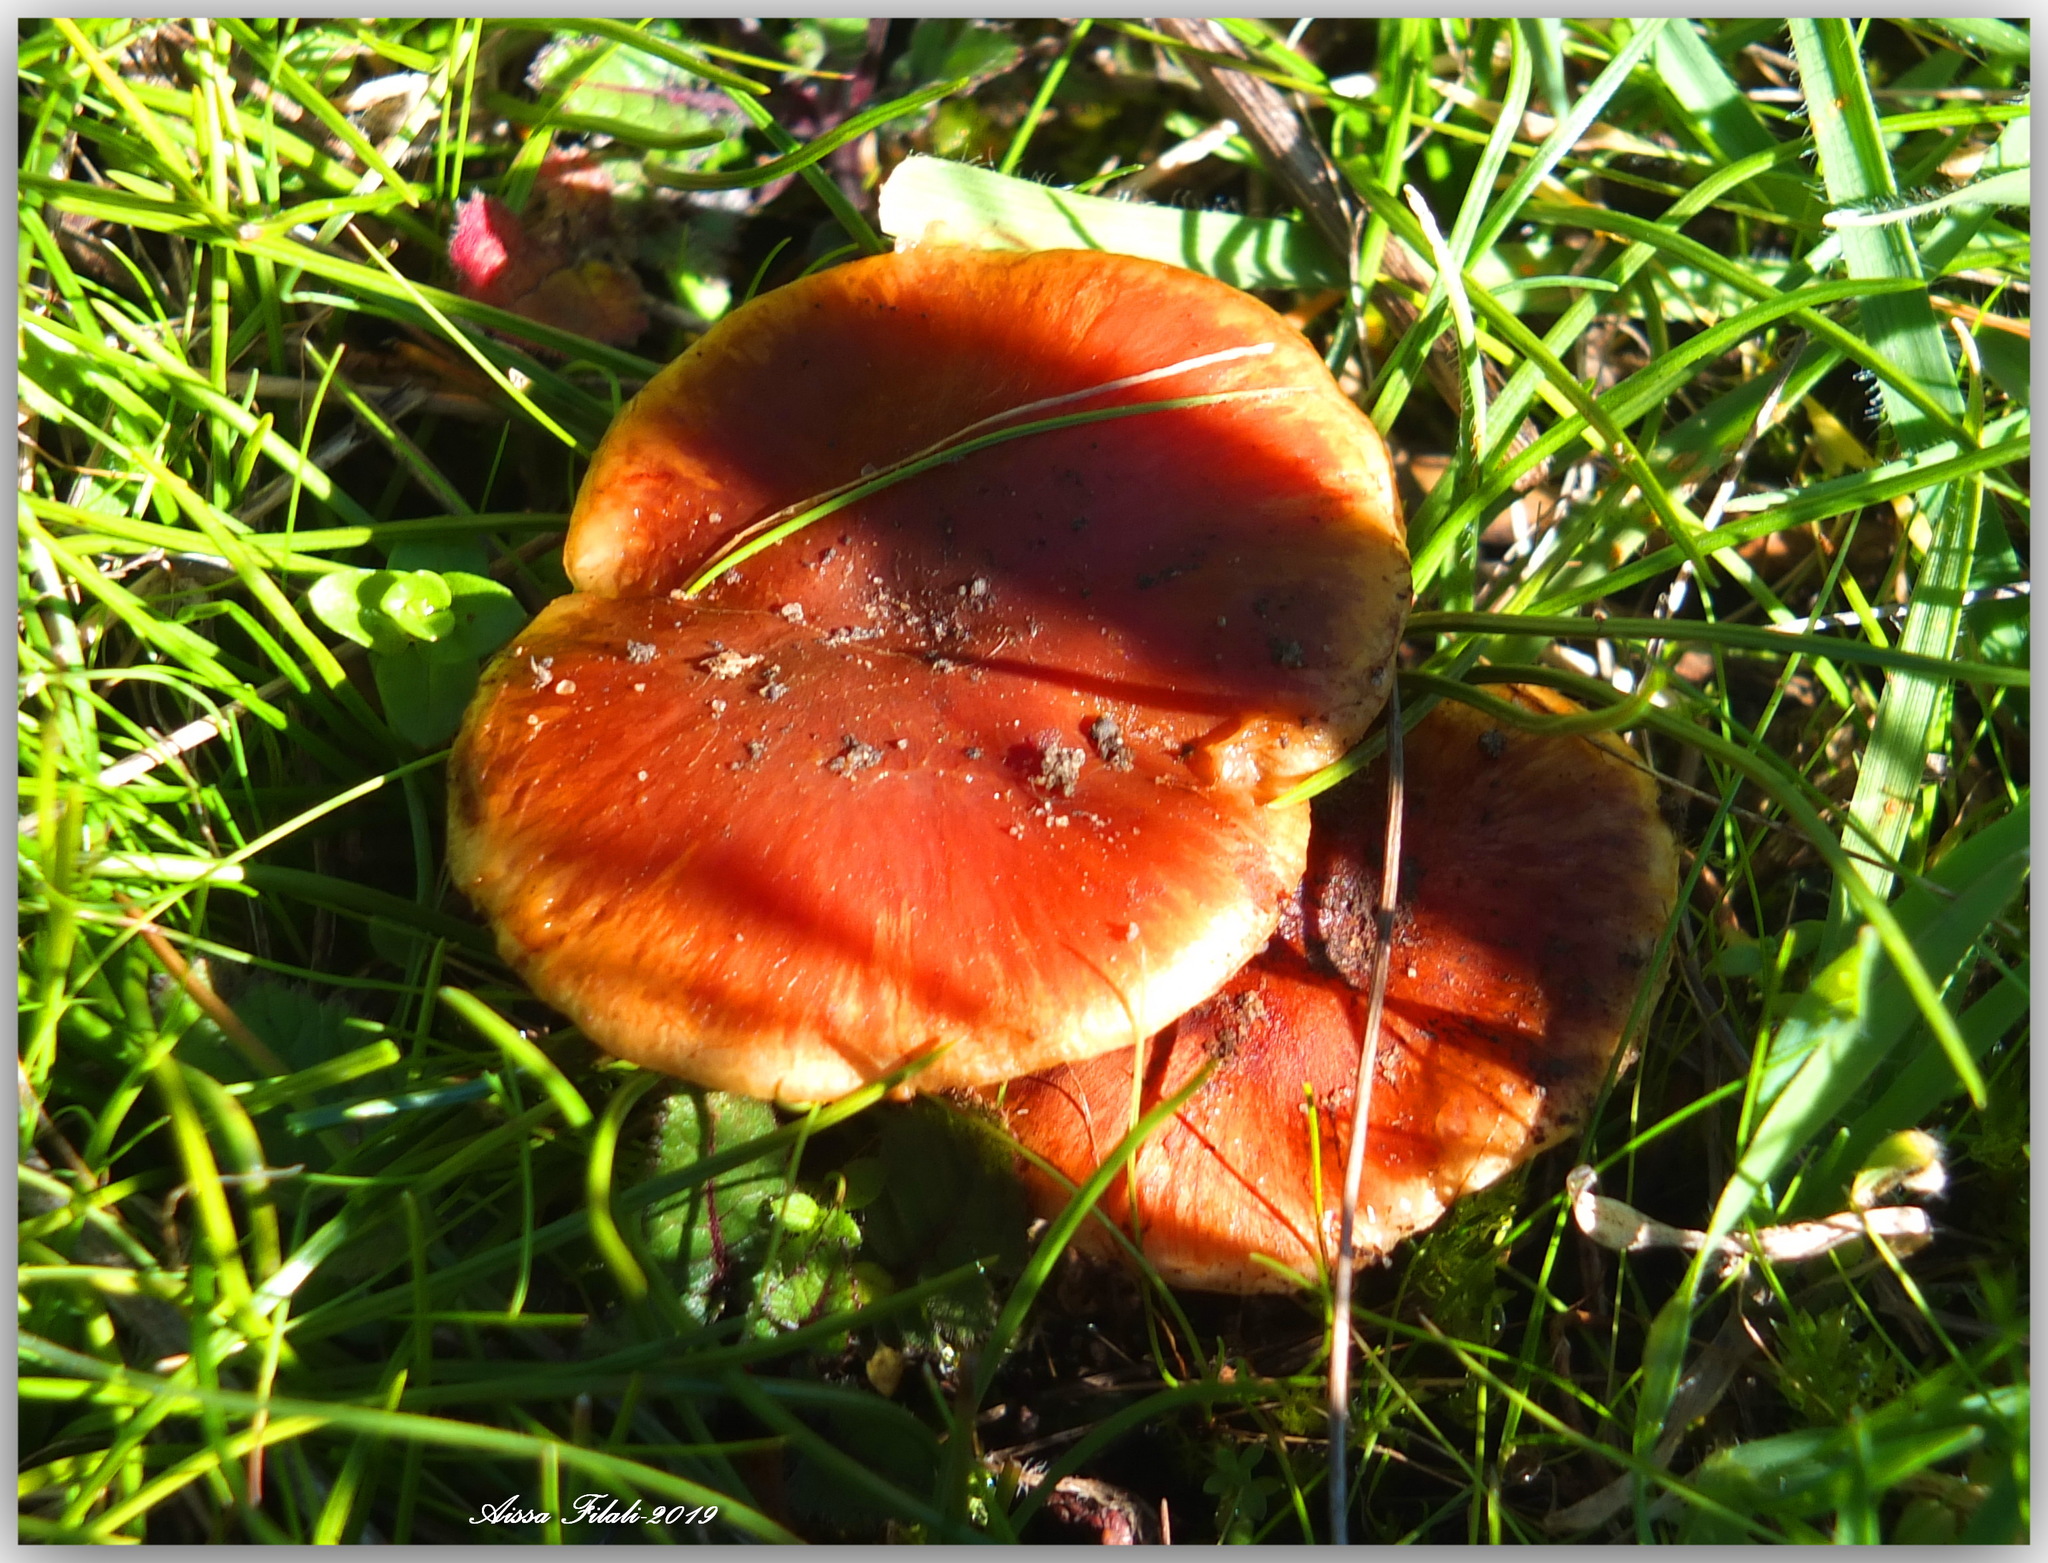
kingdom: Fungi
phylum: Basidiomycota
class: Agaricomycetes
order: Agaricales
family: Strophariaceae
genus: Leratiomyces
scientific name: Leratiomyces ceres
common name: Redlead roundhead
